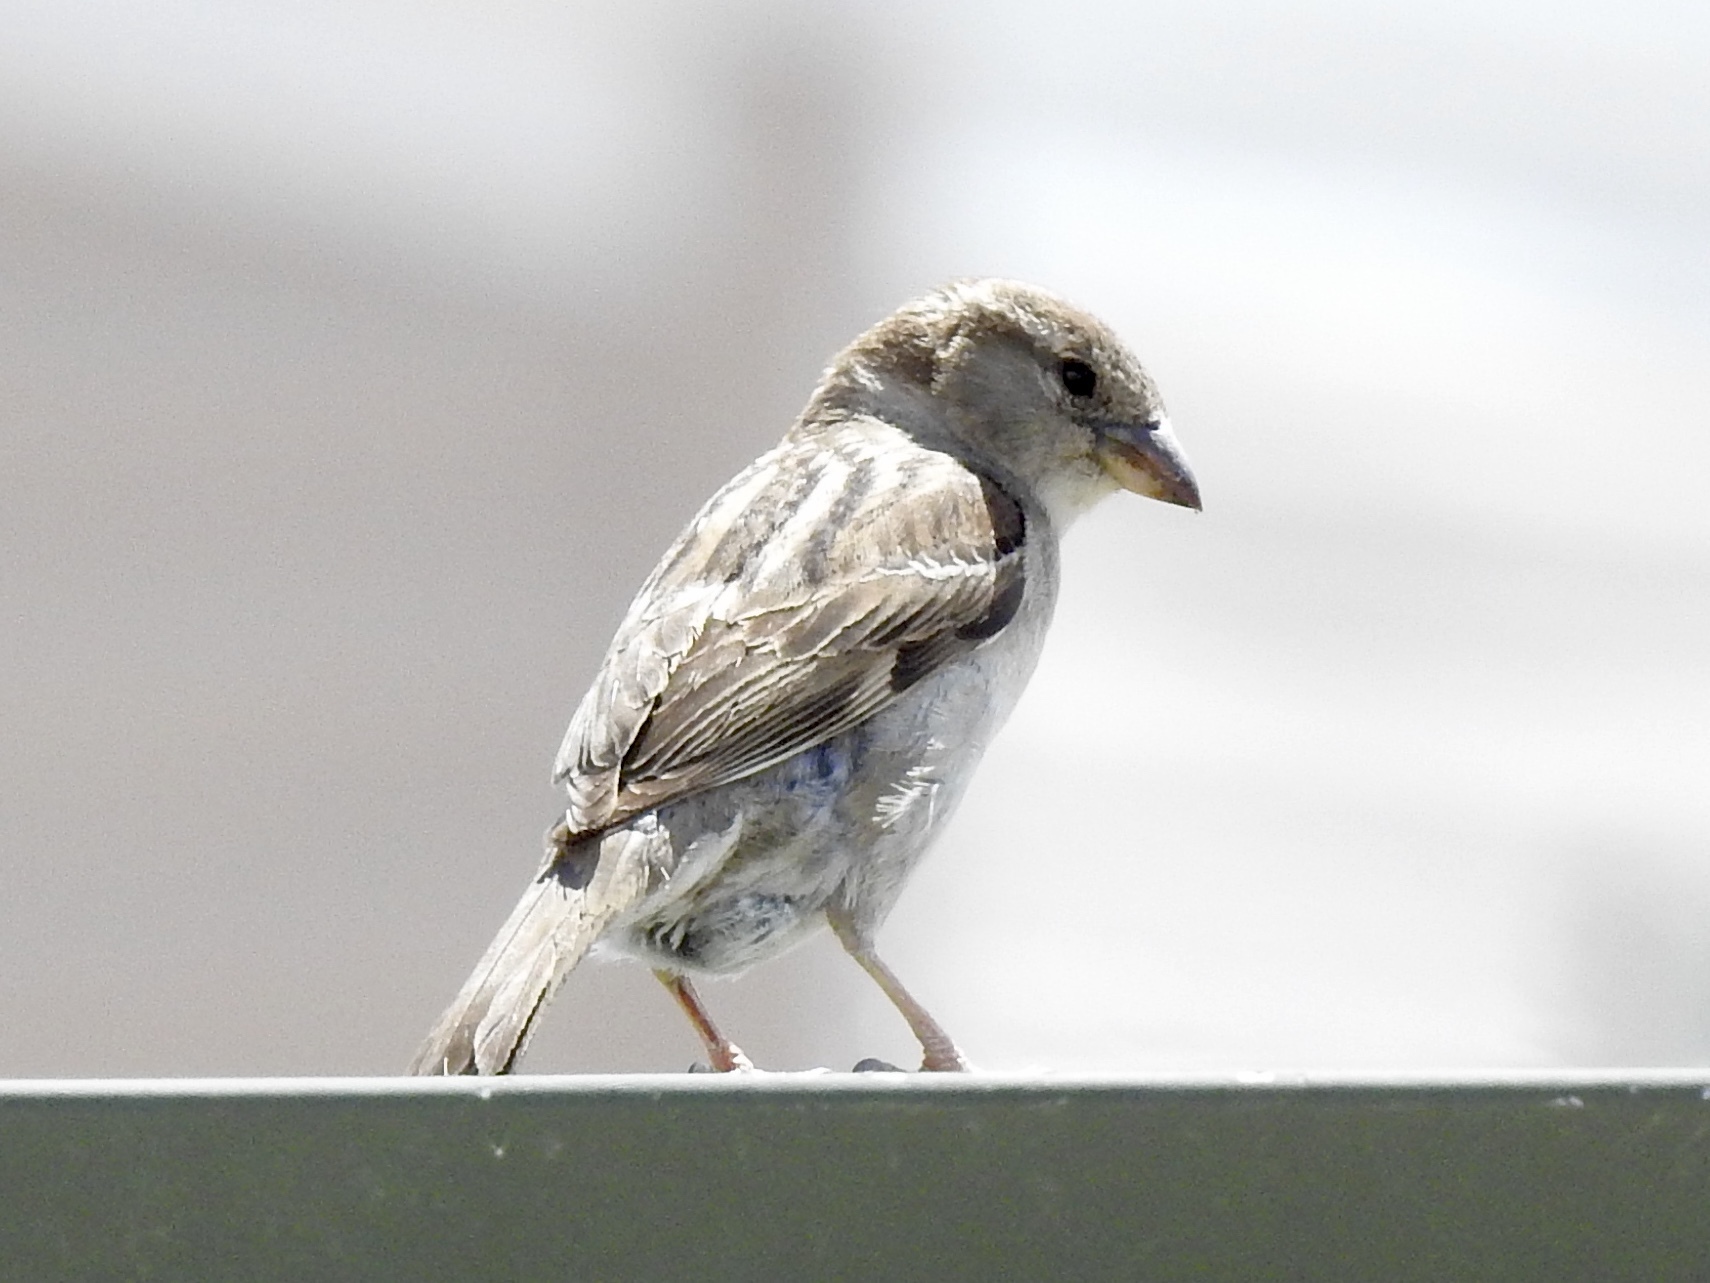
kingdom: Animalia
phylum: Chordata
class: Aves
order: Passeriformes
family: Passeridae
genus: Passer
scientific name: Passer domesticus
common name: House sparrow
